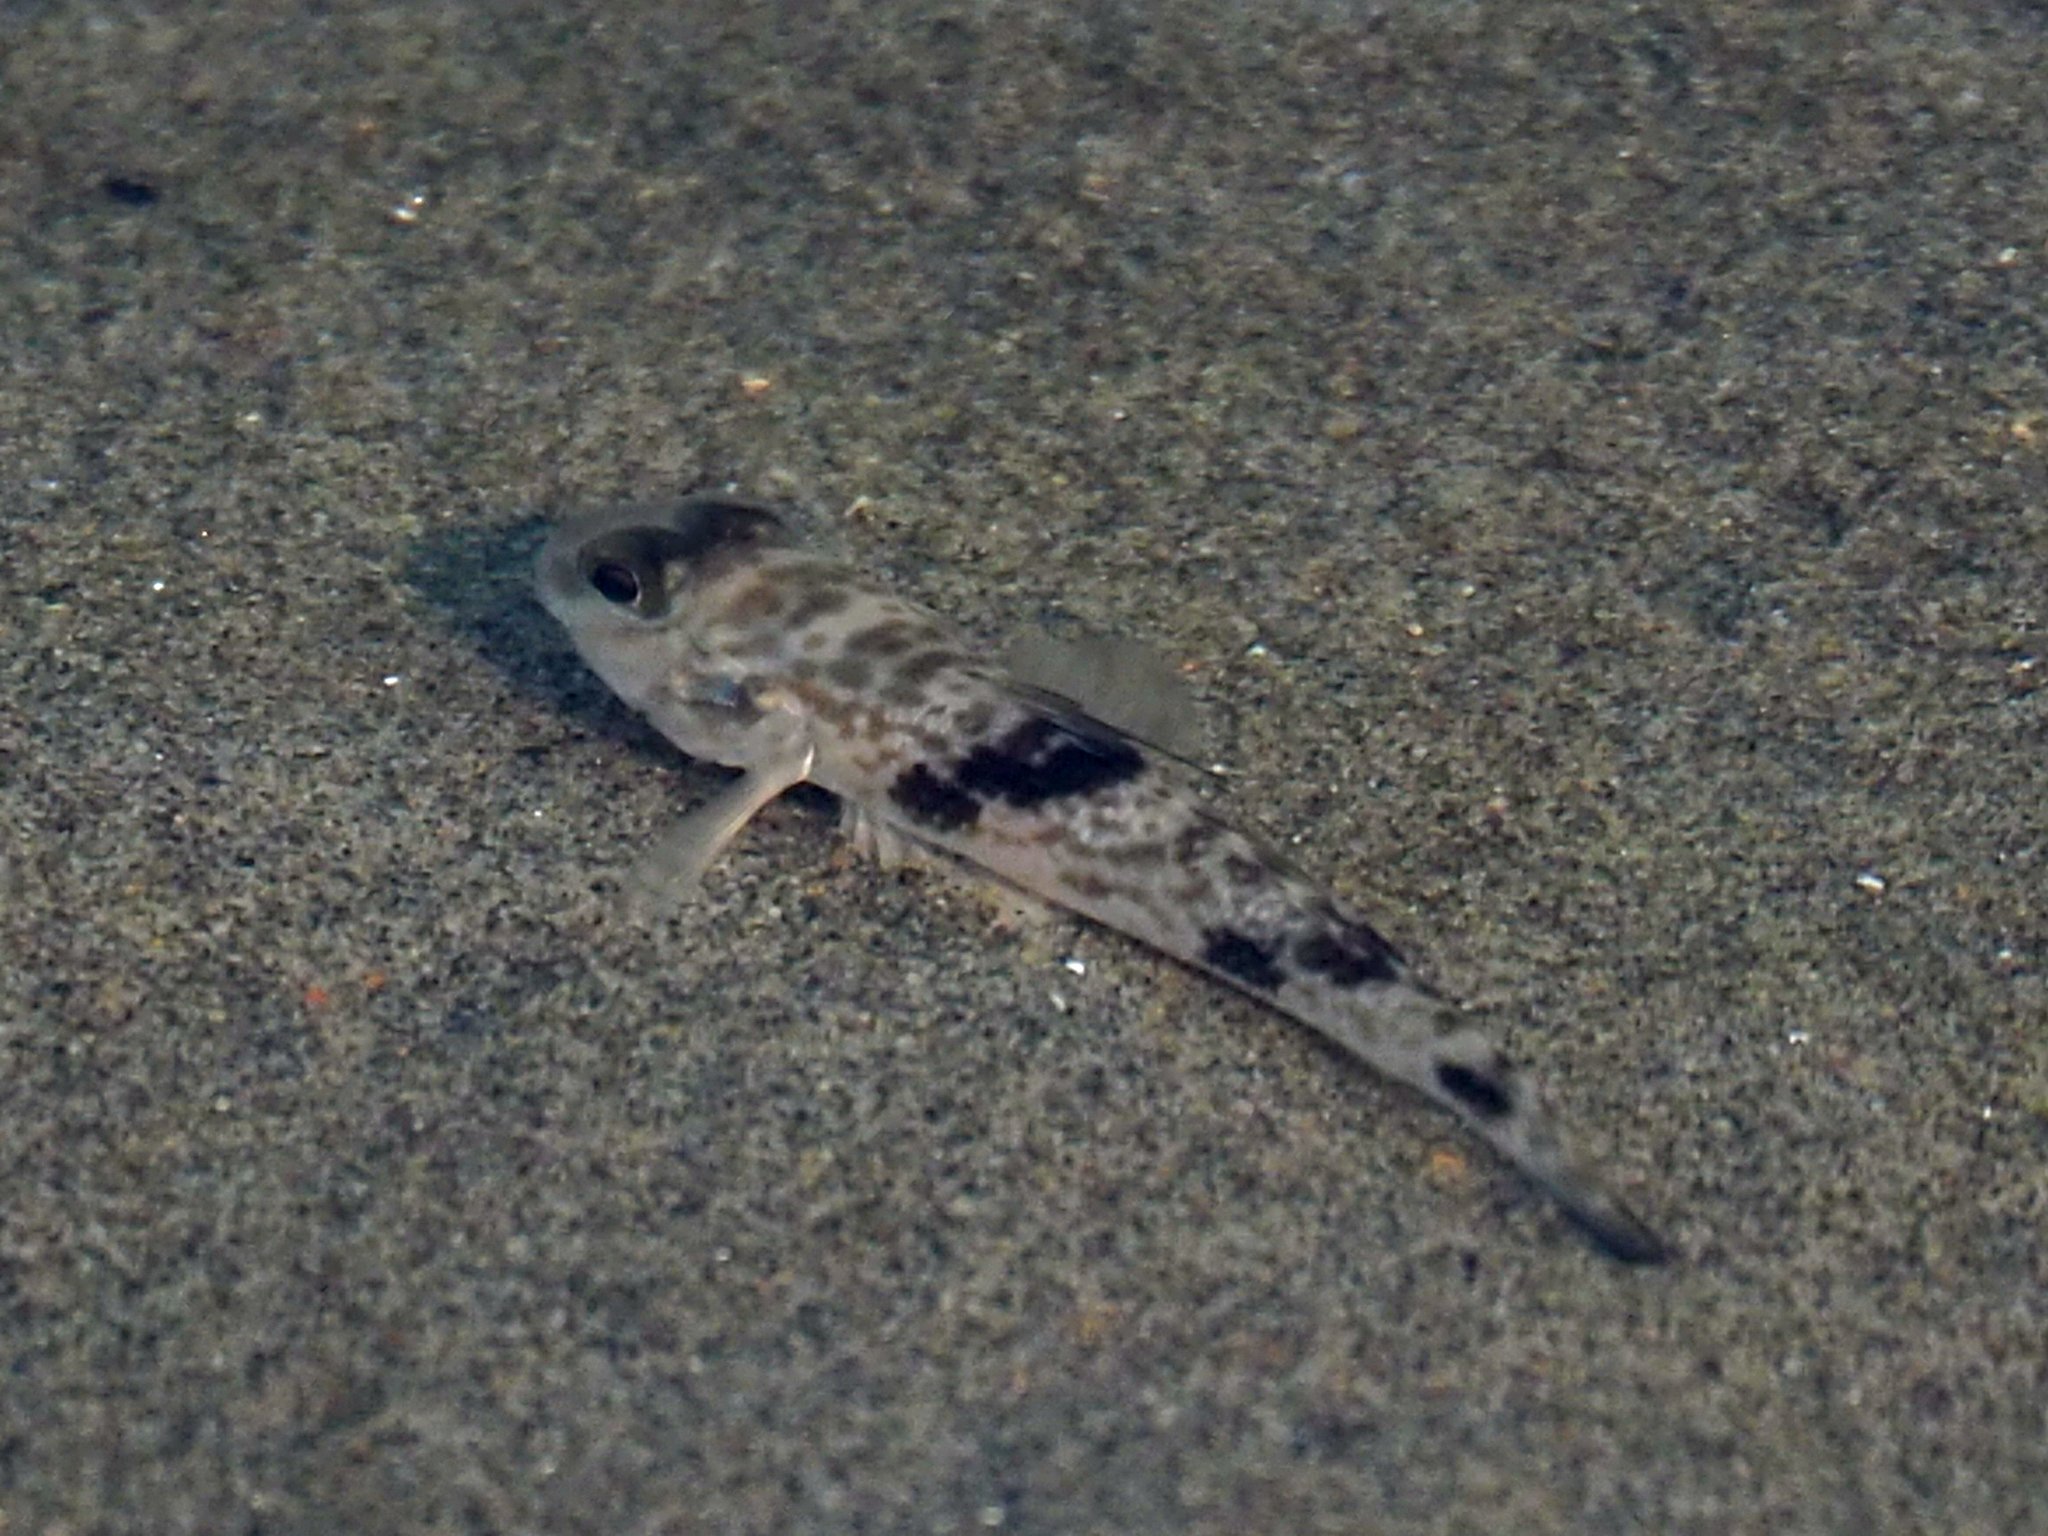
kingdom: Animalia
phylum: Chordata
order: Perciformes
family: Gobiidae
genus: Acentrogobius
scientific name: Acentrogobius nebulosus
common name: Shadow goby
